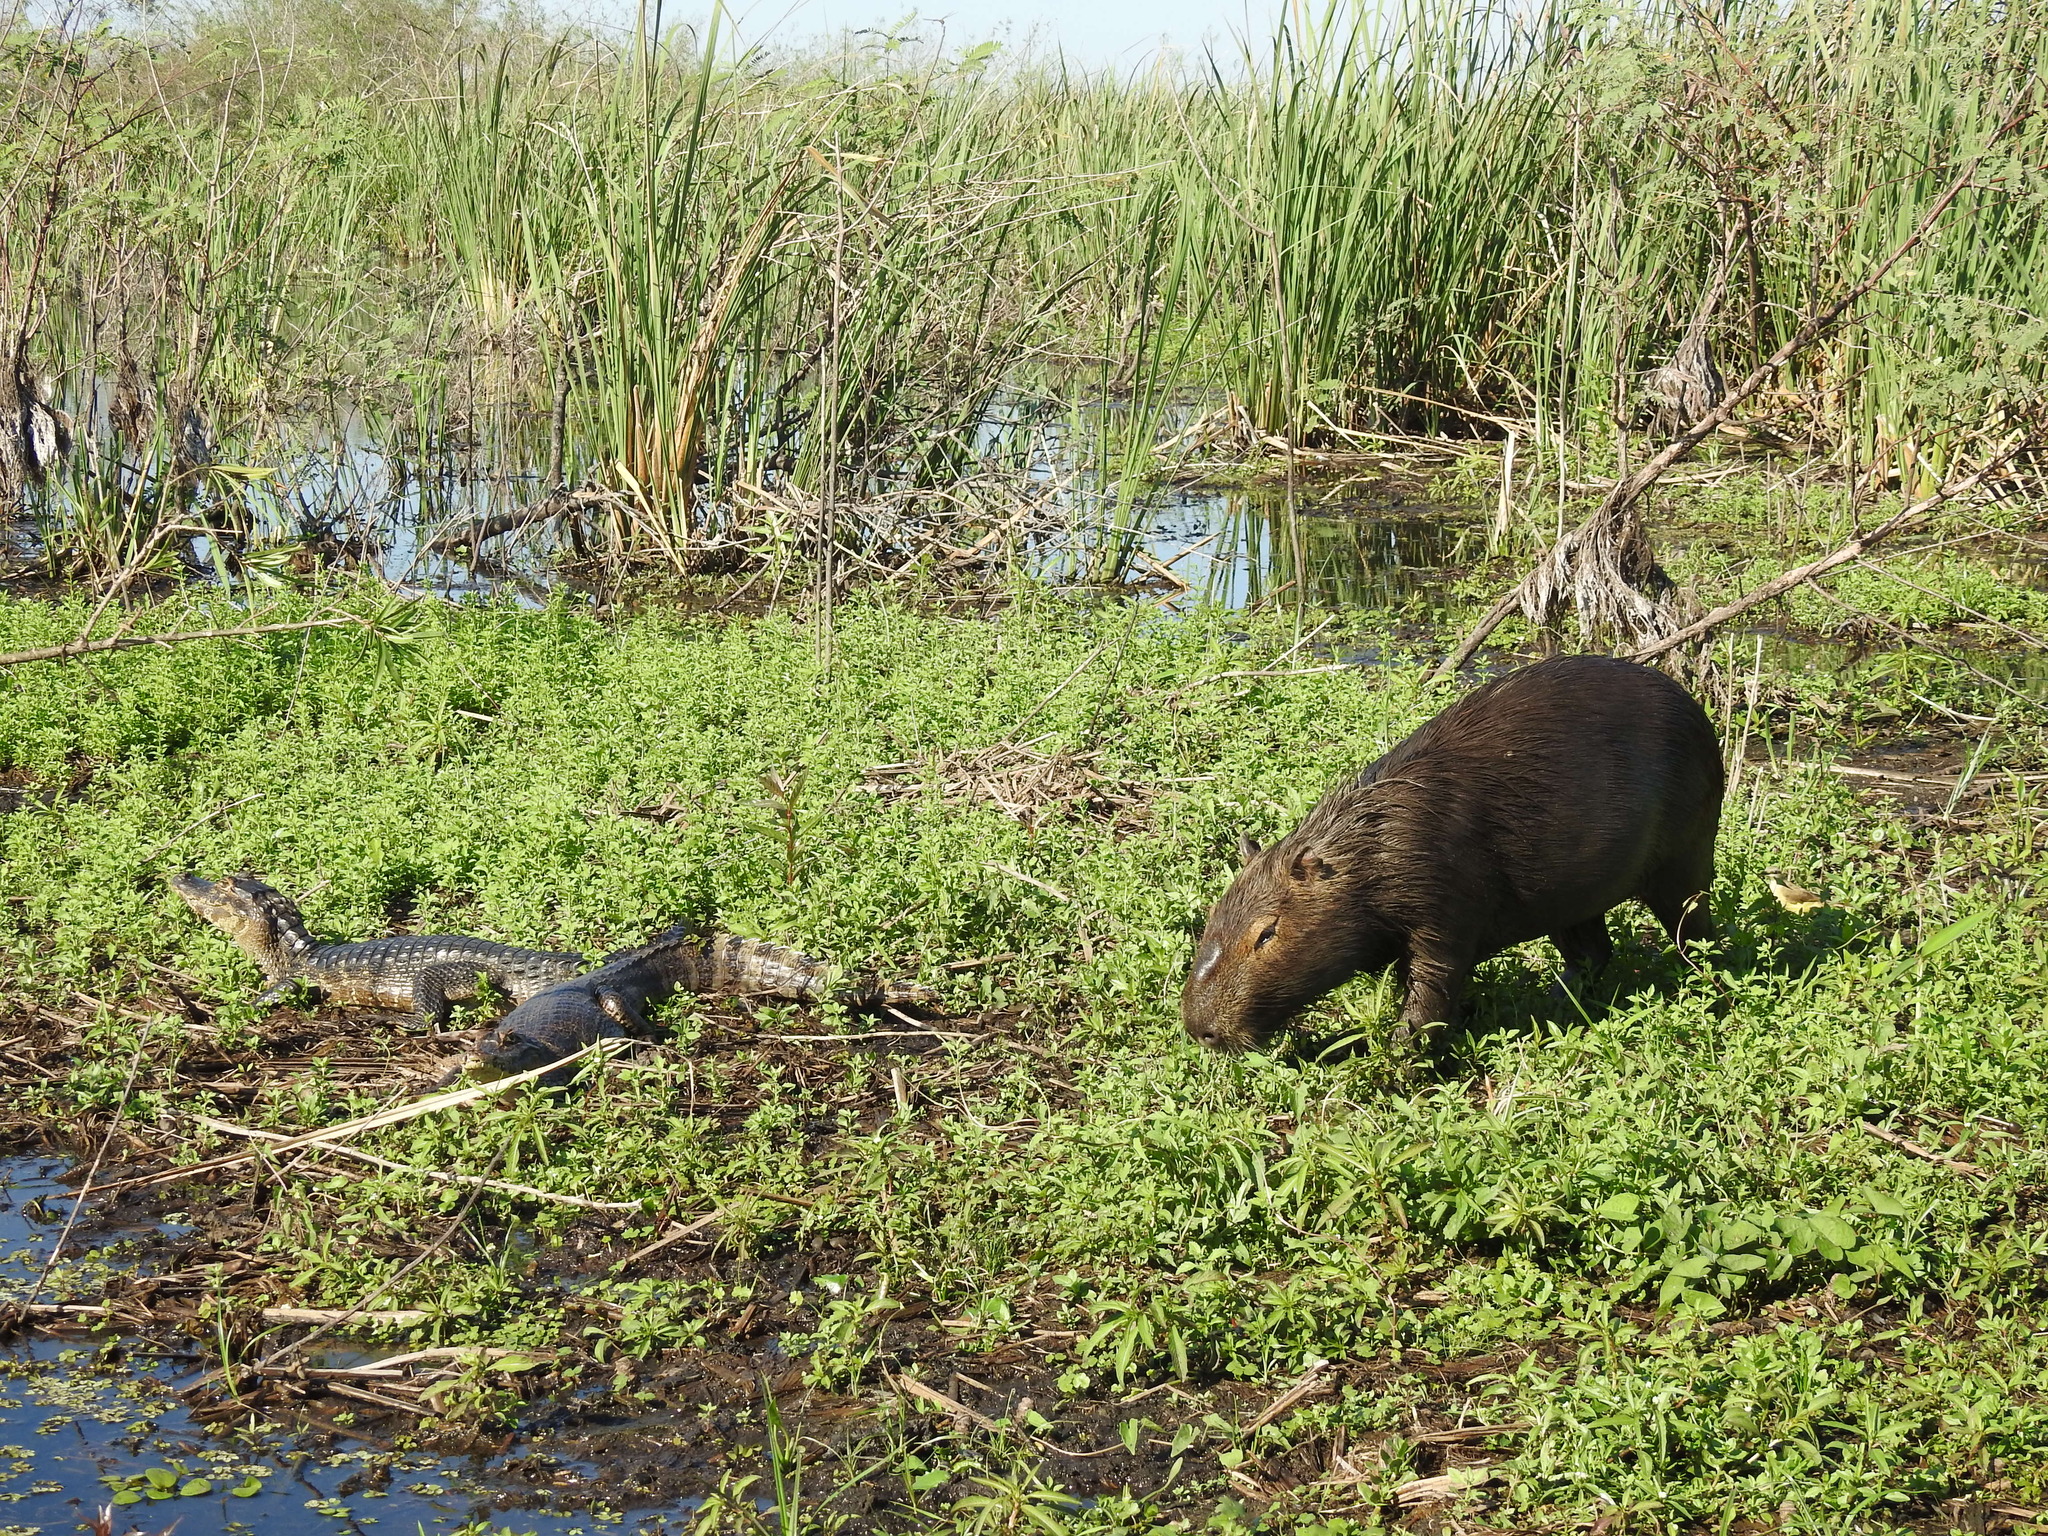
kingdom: Animalia
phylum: Chordata
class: Mammalia
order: Rodentia
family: Caviidae
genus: Hydrochoerus
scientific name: Hydrochoerus hydrochaeris
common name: Capybara
